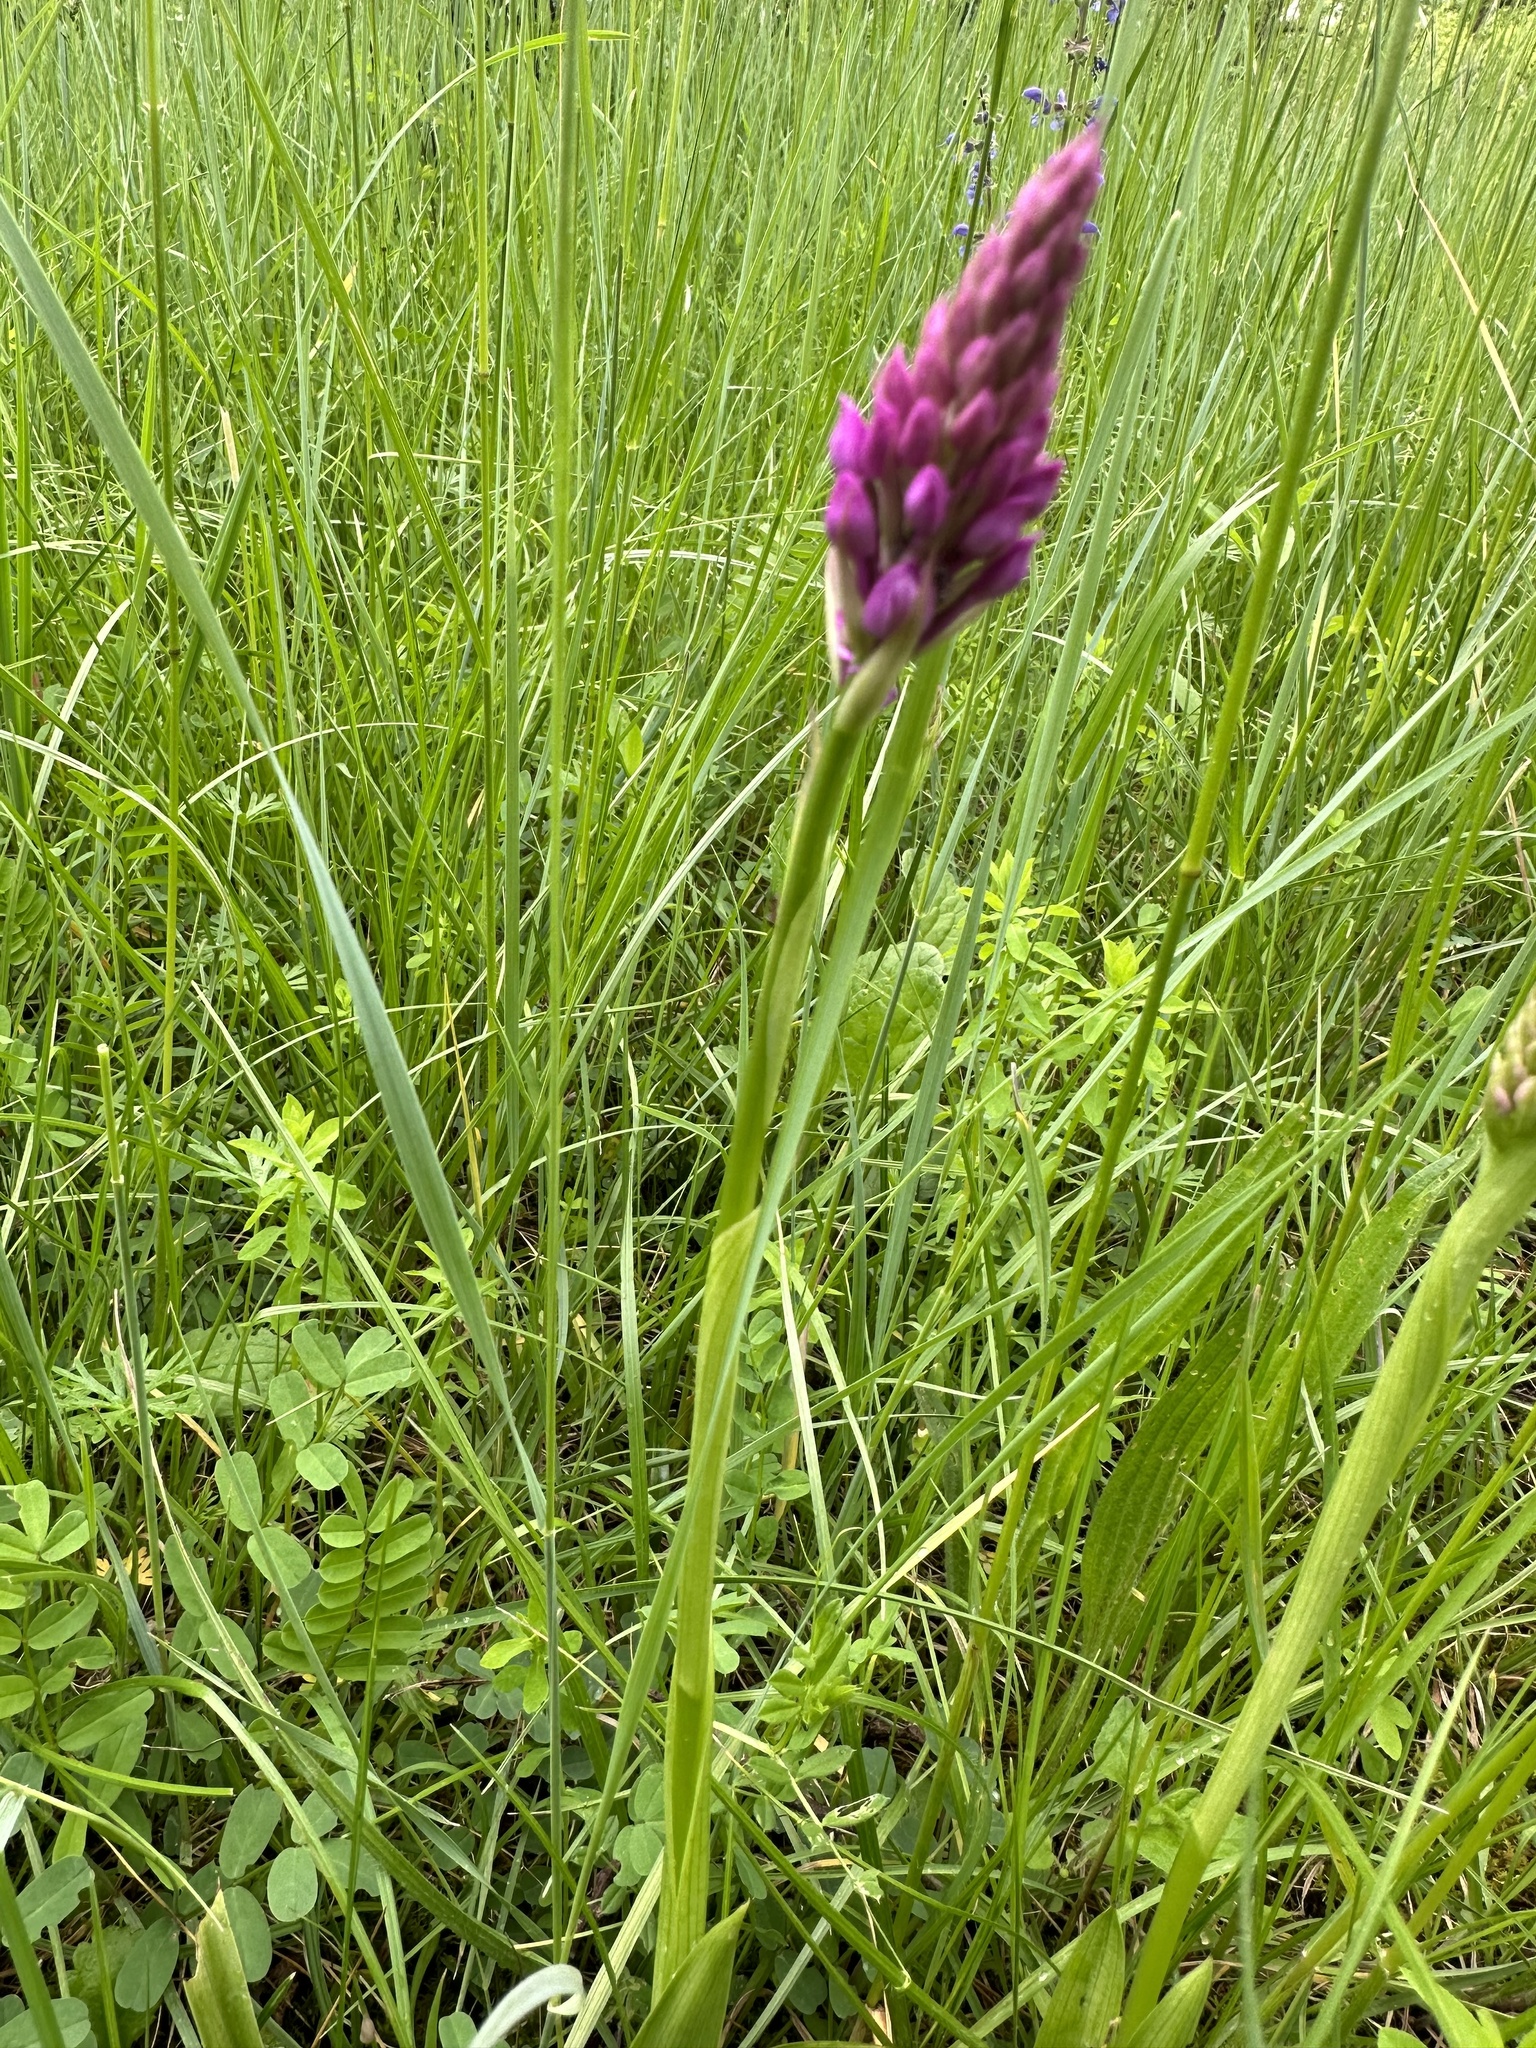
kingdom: Plantae
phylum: Tracheophyta
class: Liliopsida
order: Asparagales
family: Orchidaceae
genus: Anacamptis
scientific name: Anacamptis pyramidalis
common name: Pyramidal orchid
